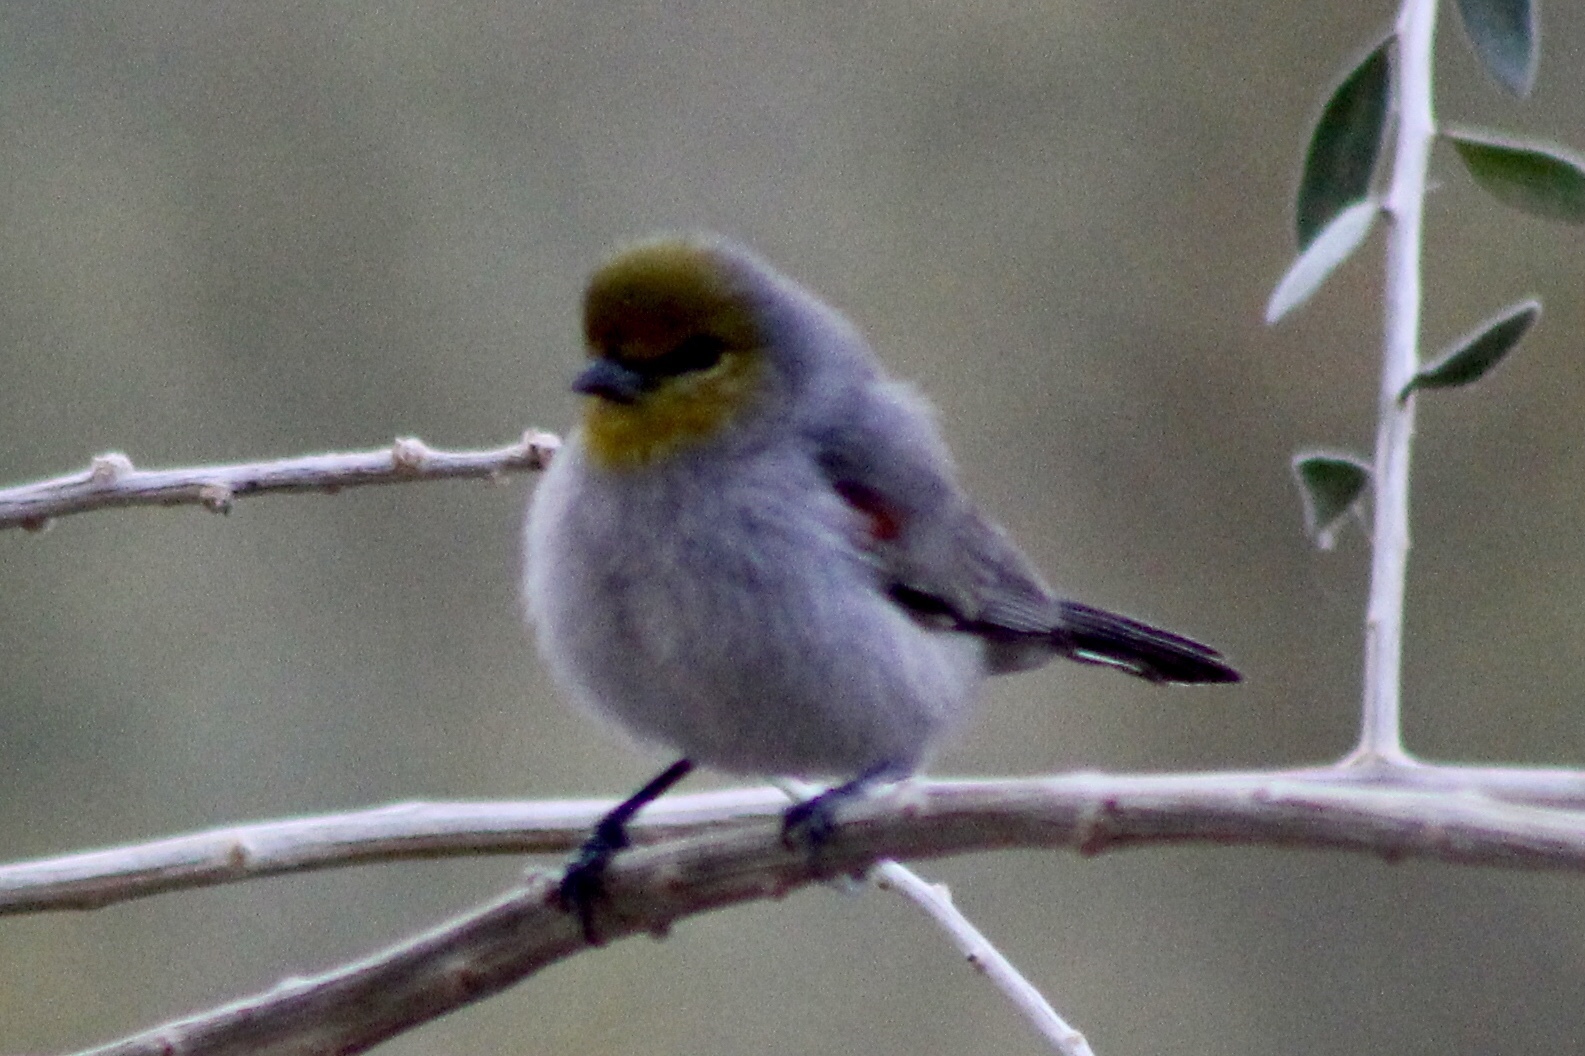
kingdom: Animalia
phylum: Chordata
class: Aves
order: Passeriformes
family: Remizidae
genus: Auriparus
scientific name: Auriparus flaviceps
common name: Verdin
